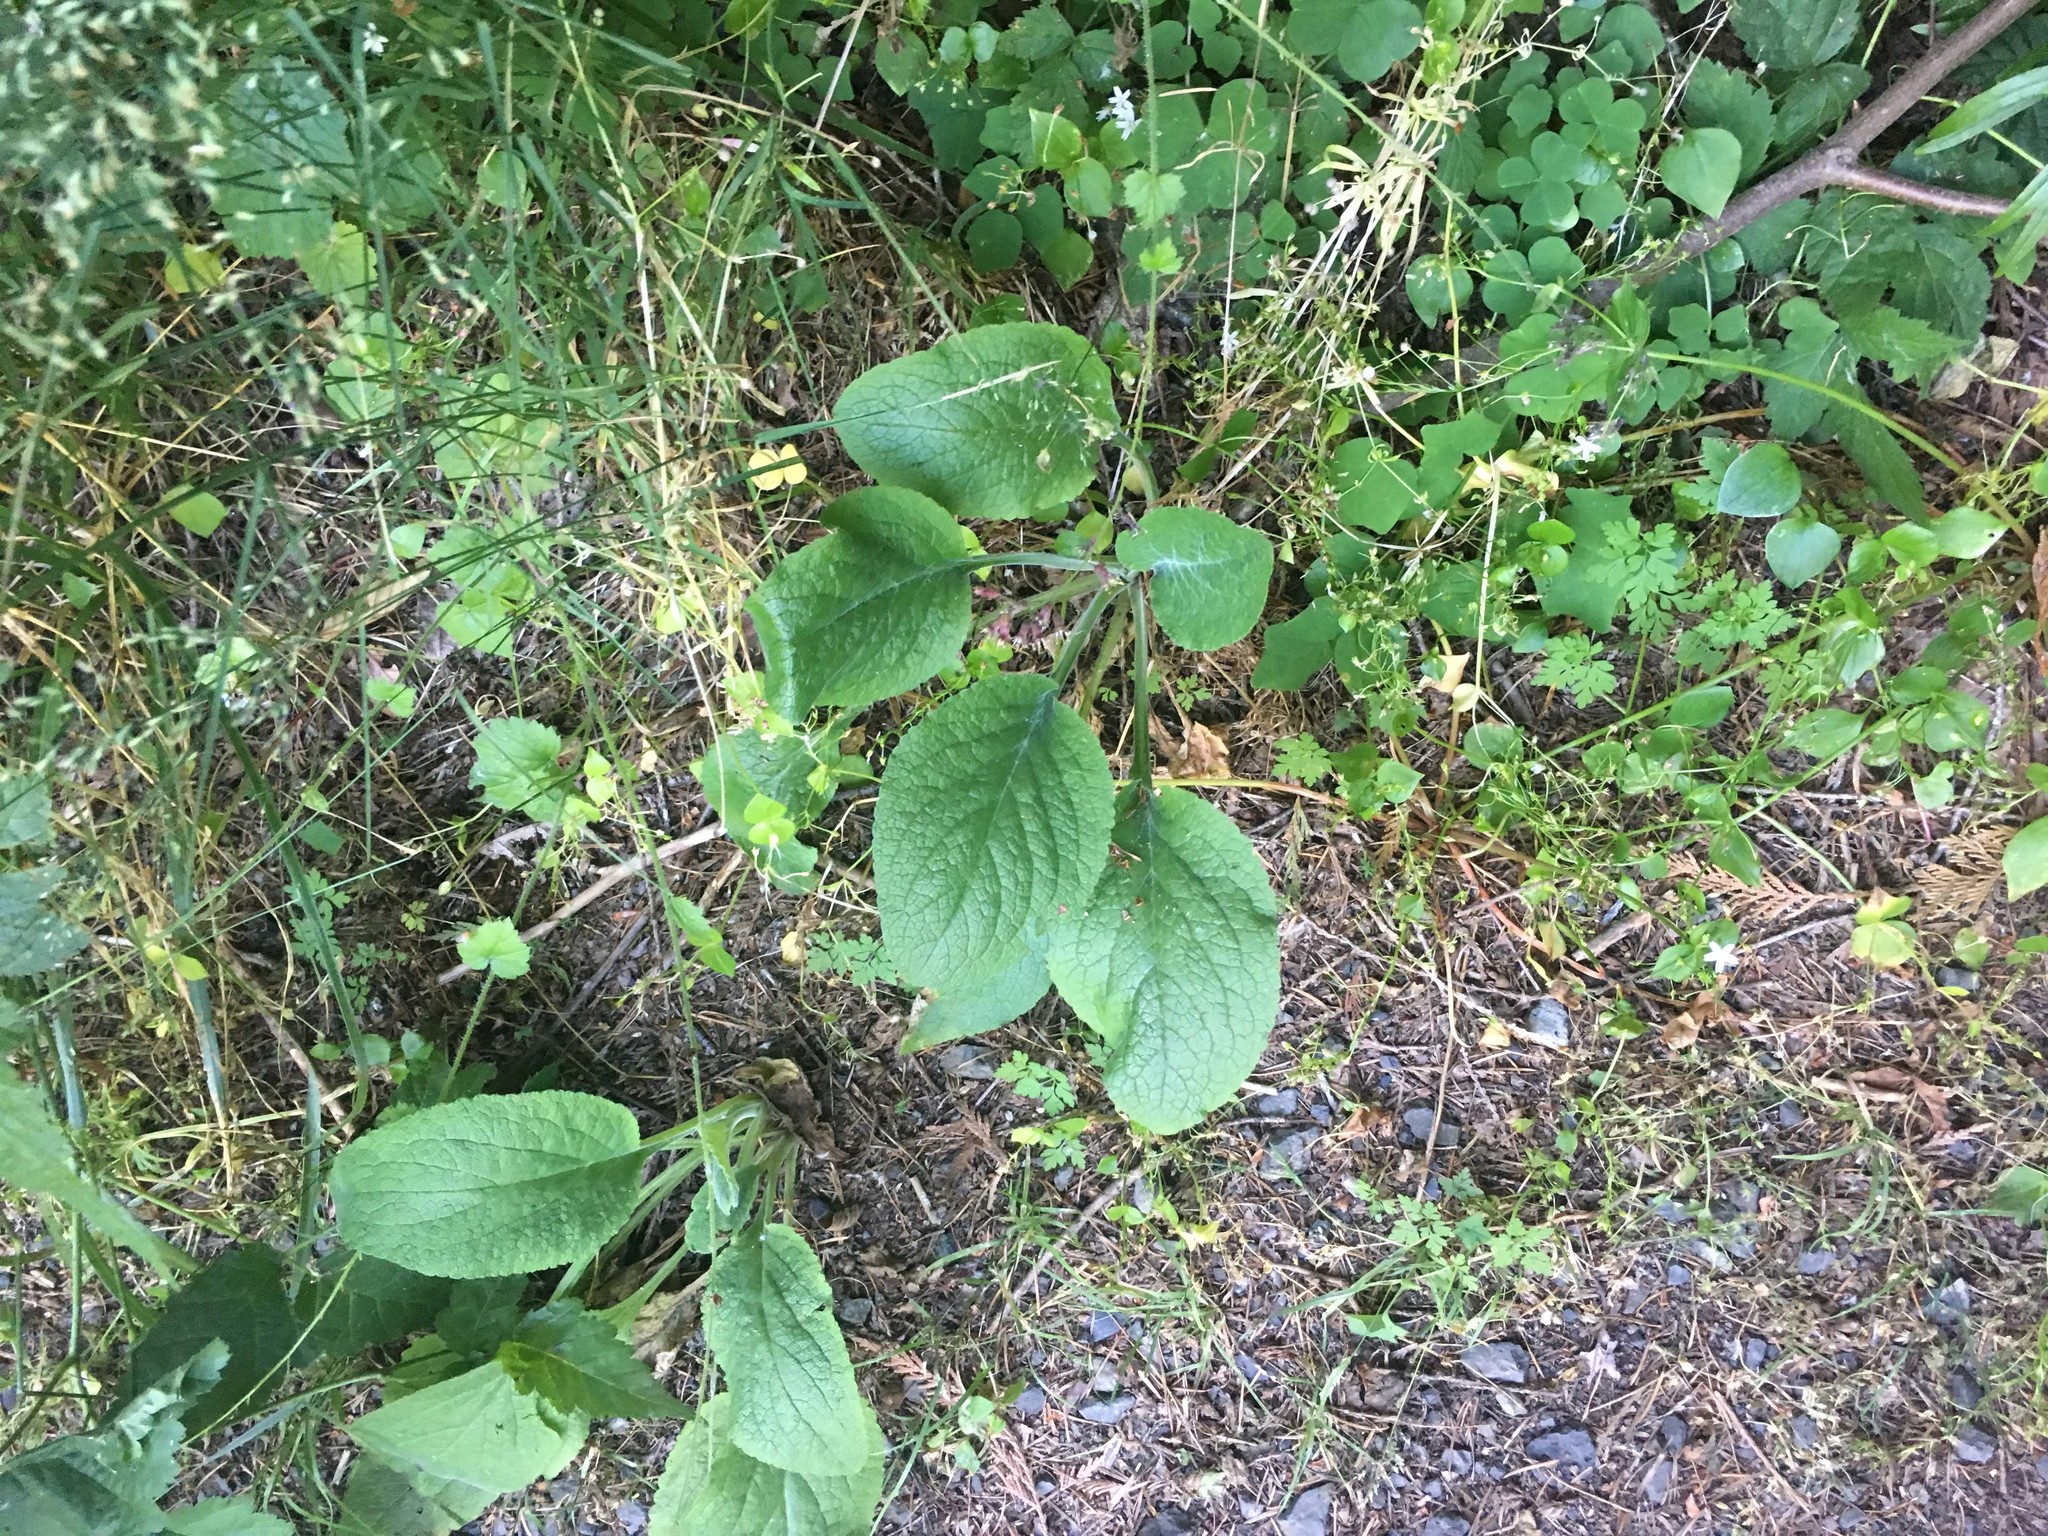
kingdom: Plantae
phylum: Tracheophyta
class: Magnoliopsida
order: Lamiales
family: Plantaginaceae
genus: Digitalis
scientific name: Digitalis purpurea
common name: Foxglove
